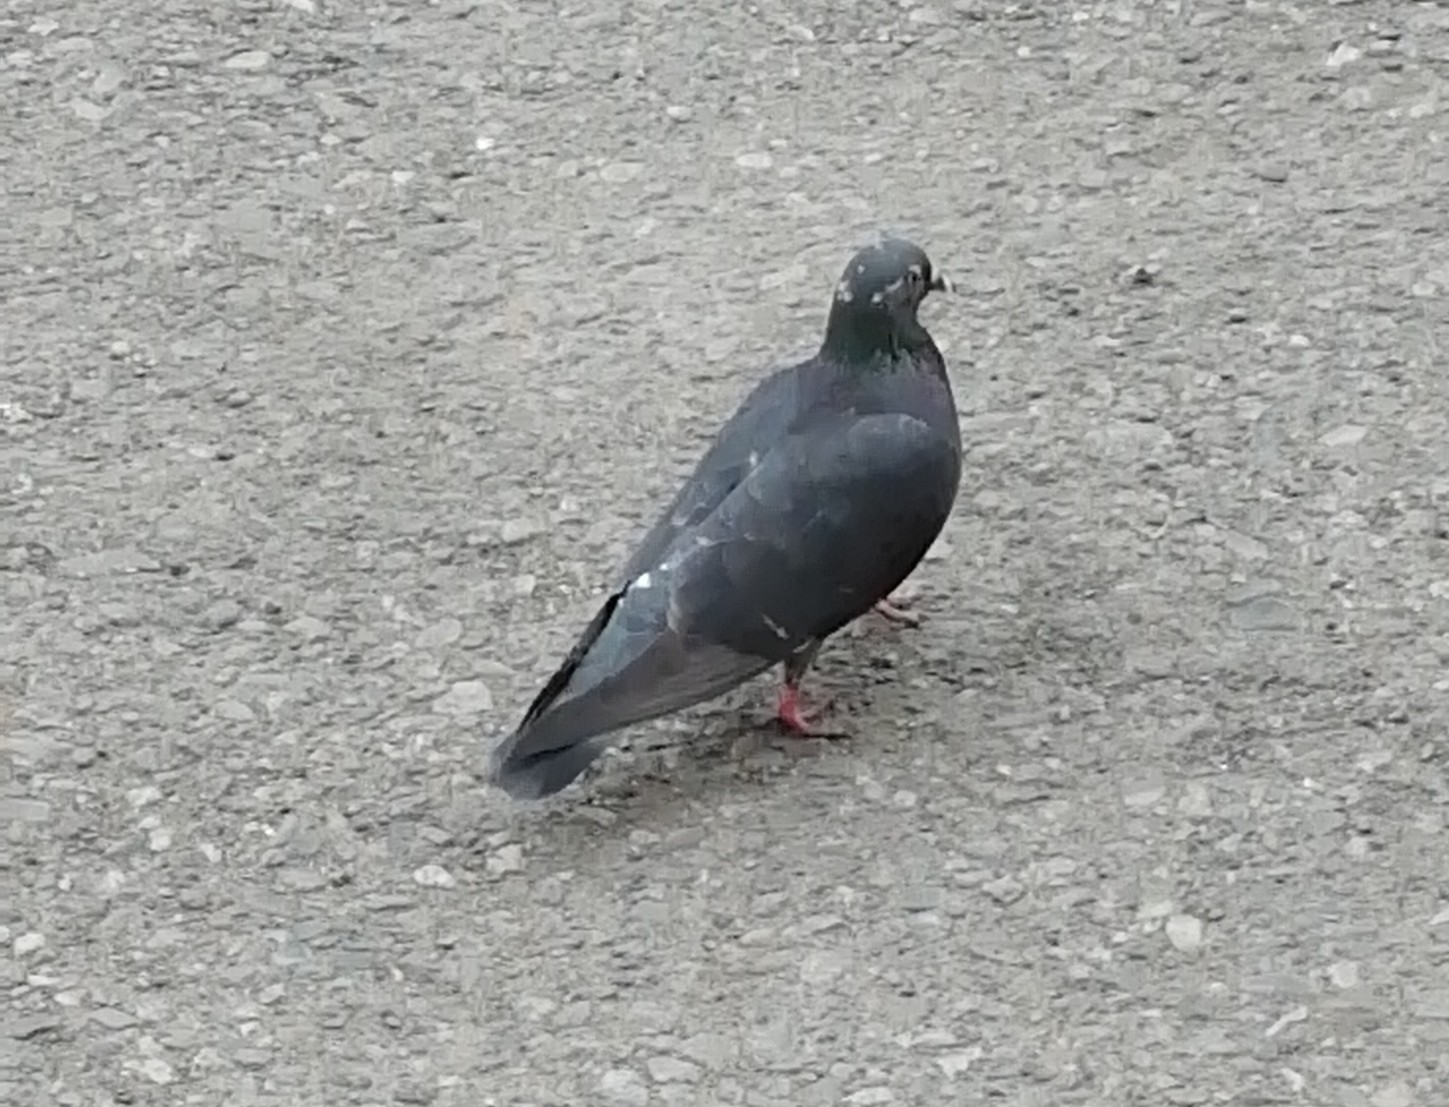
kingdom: Animalia
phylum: Chordata
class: Aves
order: Columbiformes
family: Columbidae
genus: Columba
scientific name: Columba livia
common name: Rock pigeon
